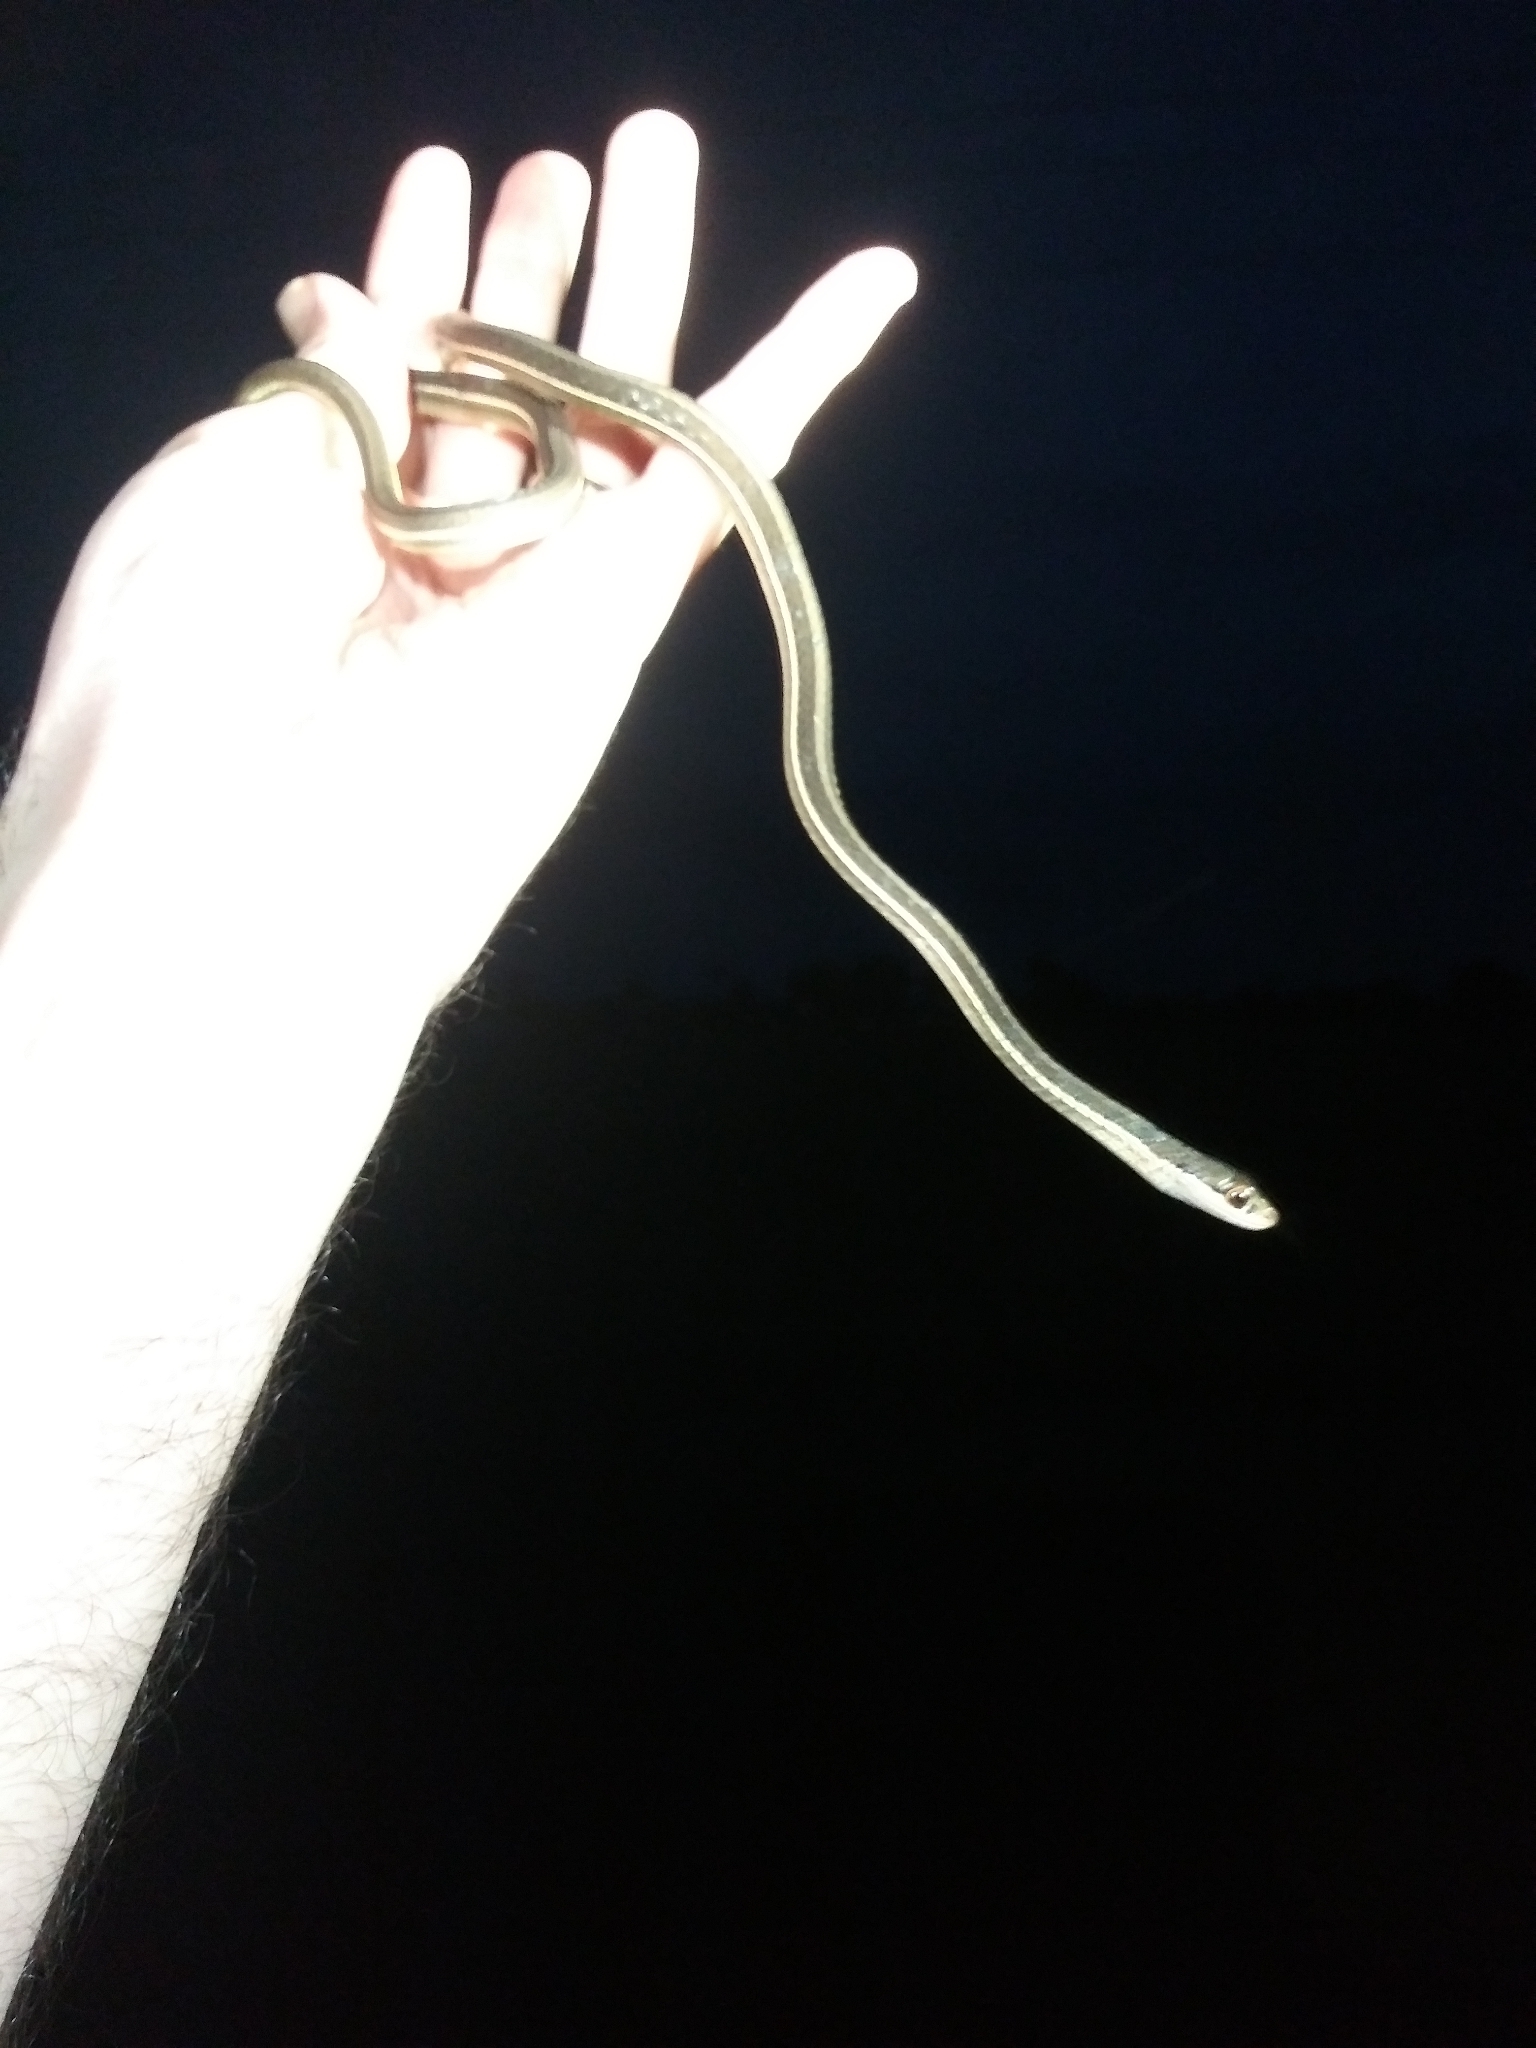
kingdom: Animalia
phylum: Chordata
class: Squamata
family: Colubridae
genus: Thamnophis
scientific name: Thamnophis saurita
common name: Eastern ribbonsnake
